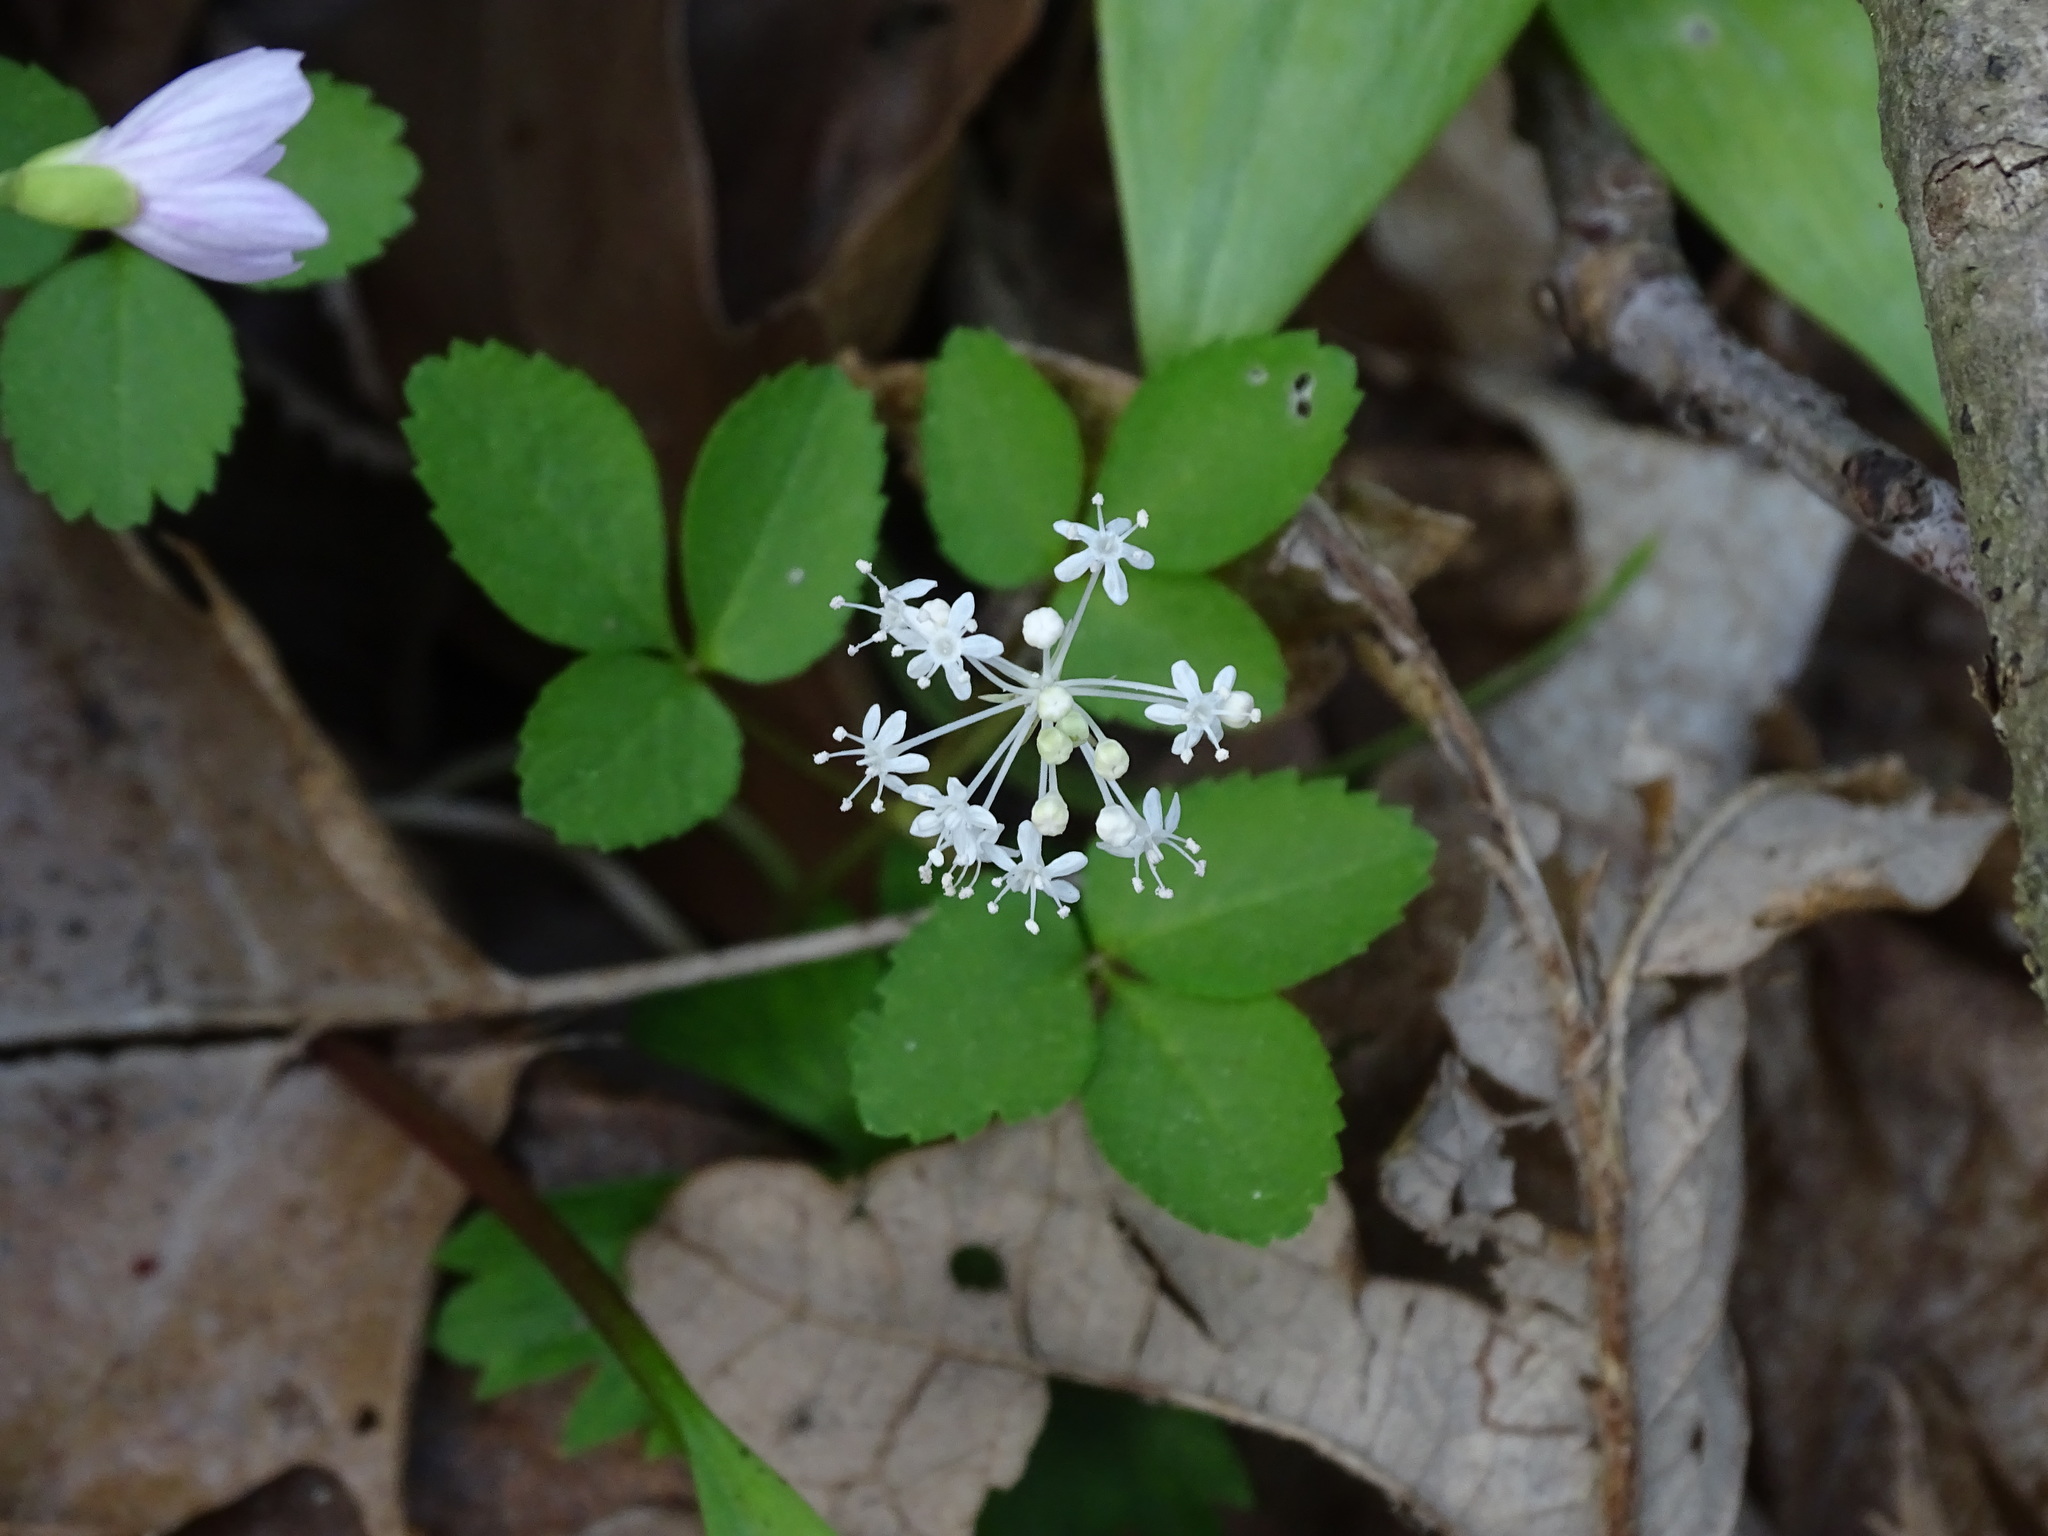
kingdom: Plantae
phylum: Tracheophyta
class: Magnoliopsida
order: Apiales
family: Araliaceae
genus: Panax
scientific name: Panax trifolius
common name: Dwarf ginseng
